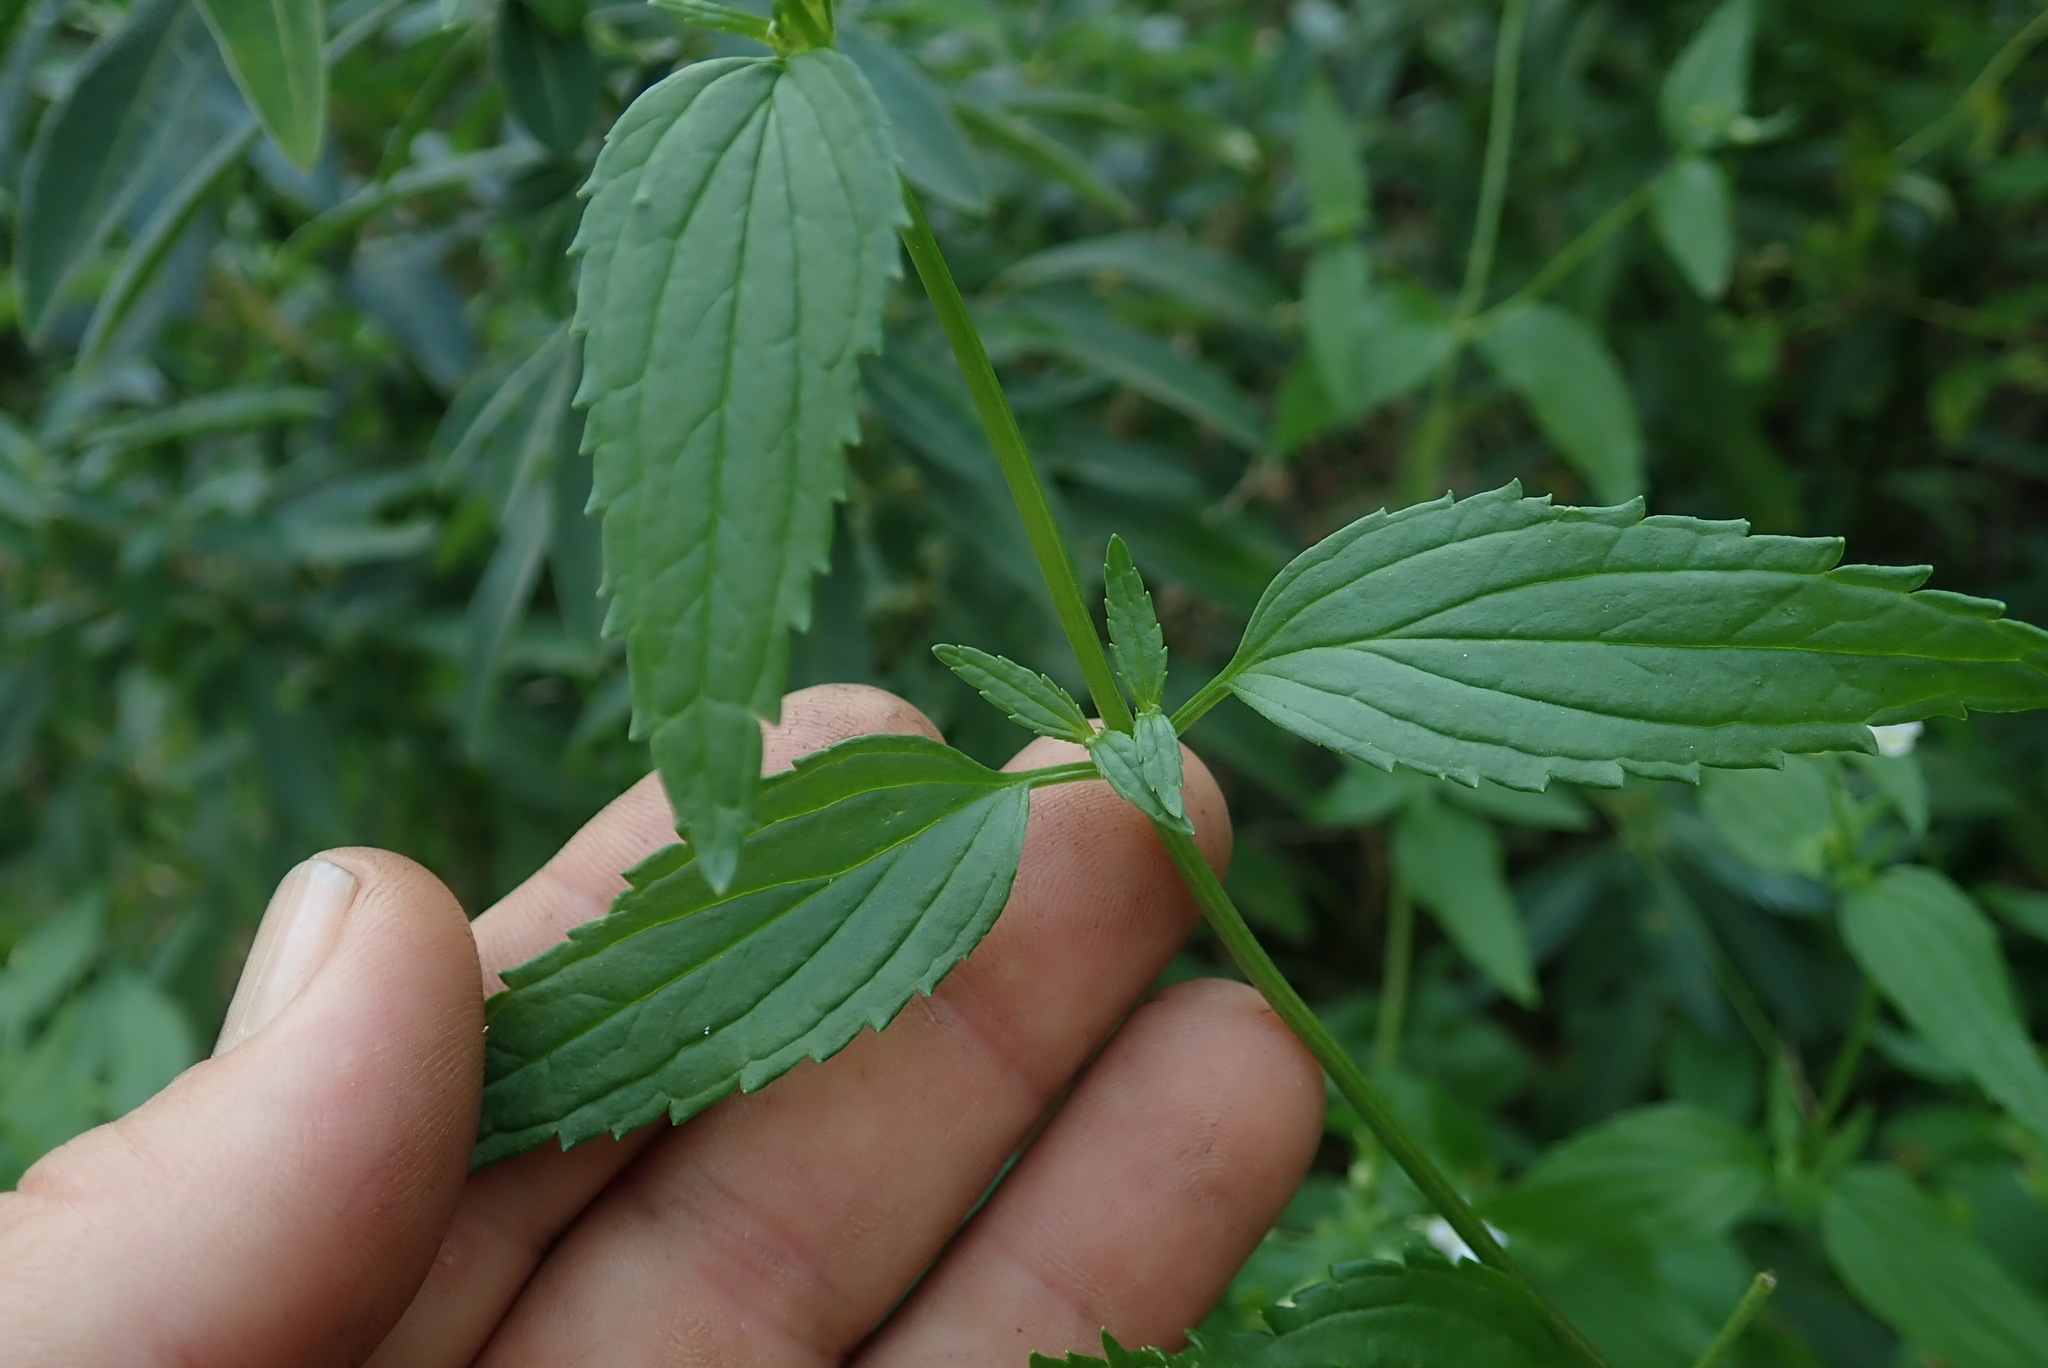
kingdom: Plantae
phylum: Tracheophyta
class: Magnoliopsida
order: Lamiales
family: Scrophulariaceae
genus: Nemesia
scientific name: Nemesia albiflora
